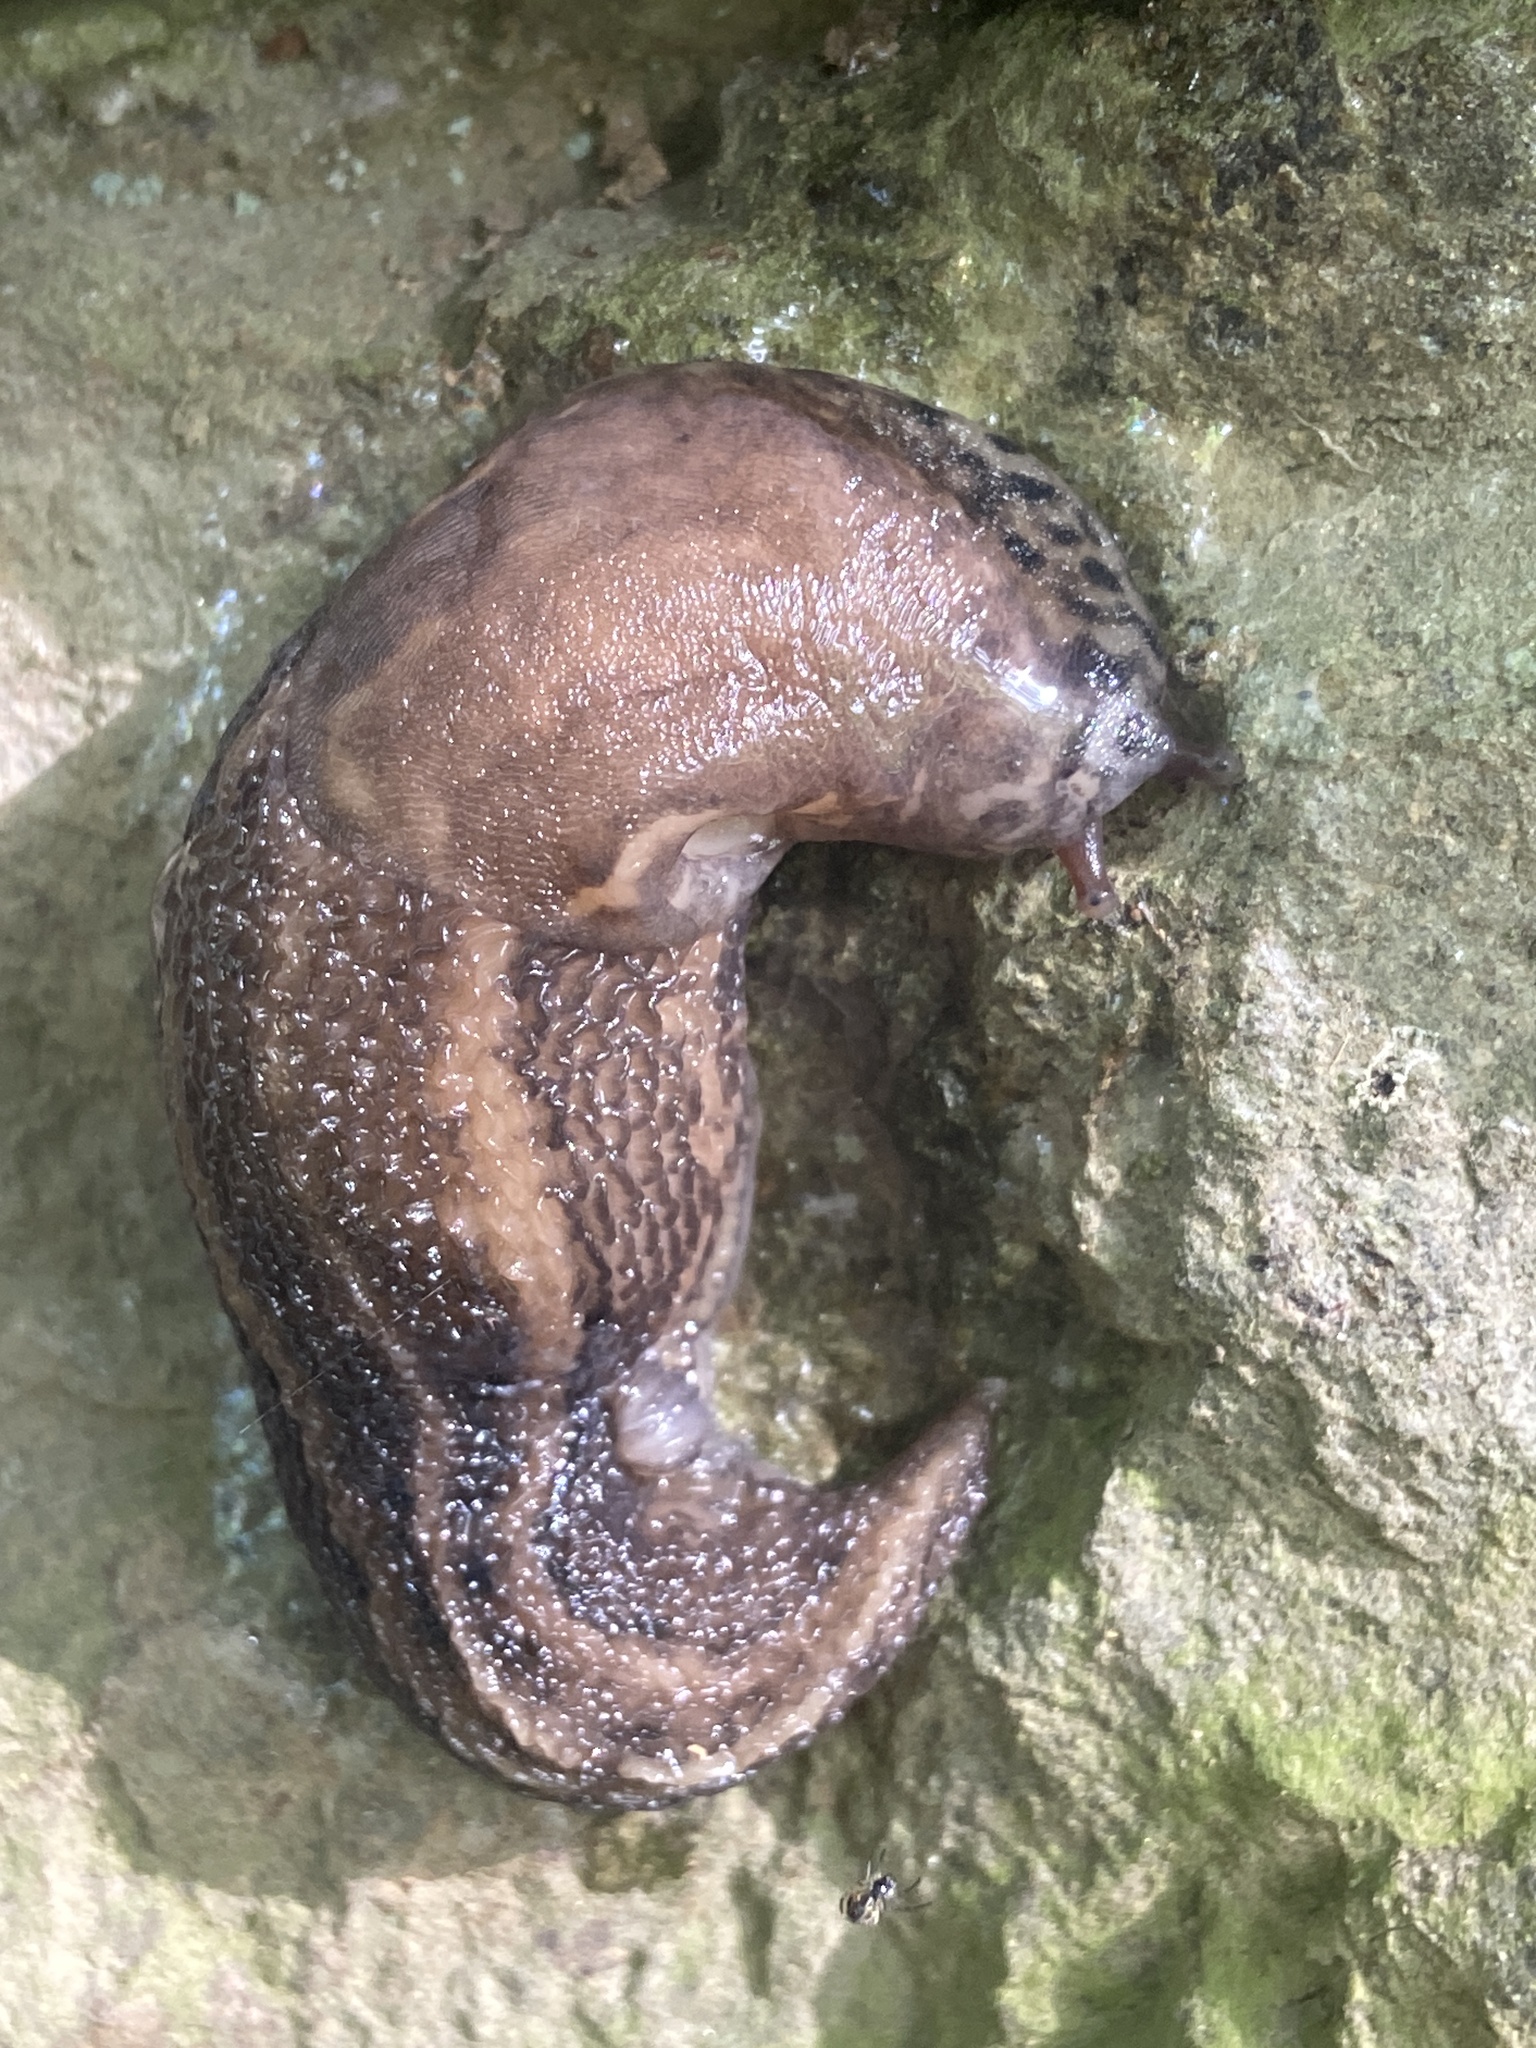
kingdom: Animalia
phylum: Mollusca
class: Gastropoda
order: Stylommatophora
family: Limacidae
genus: Limax
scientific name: Limax maximus
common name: Great grey slug
